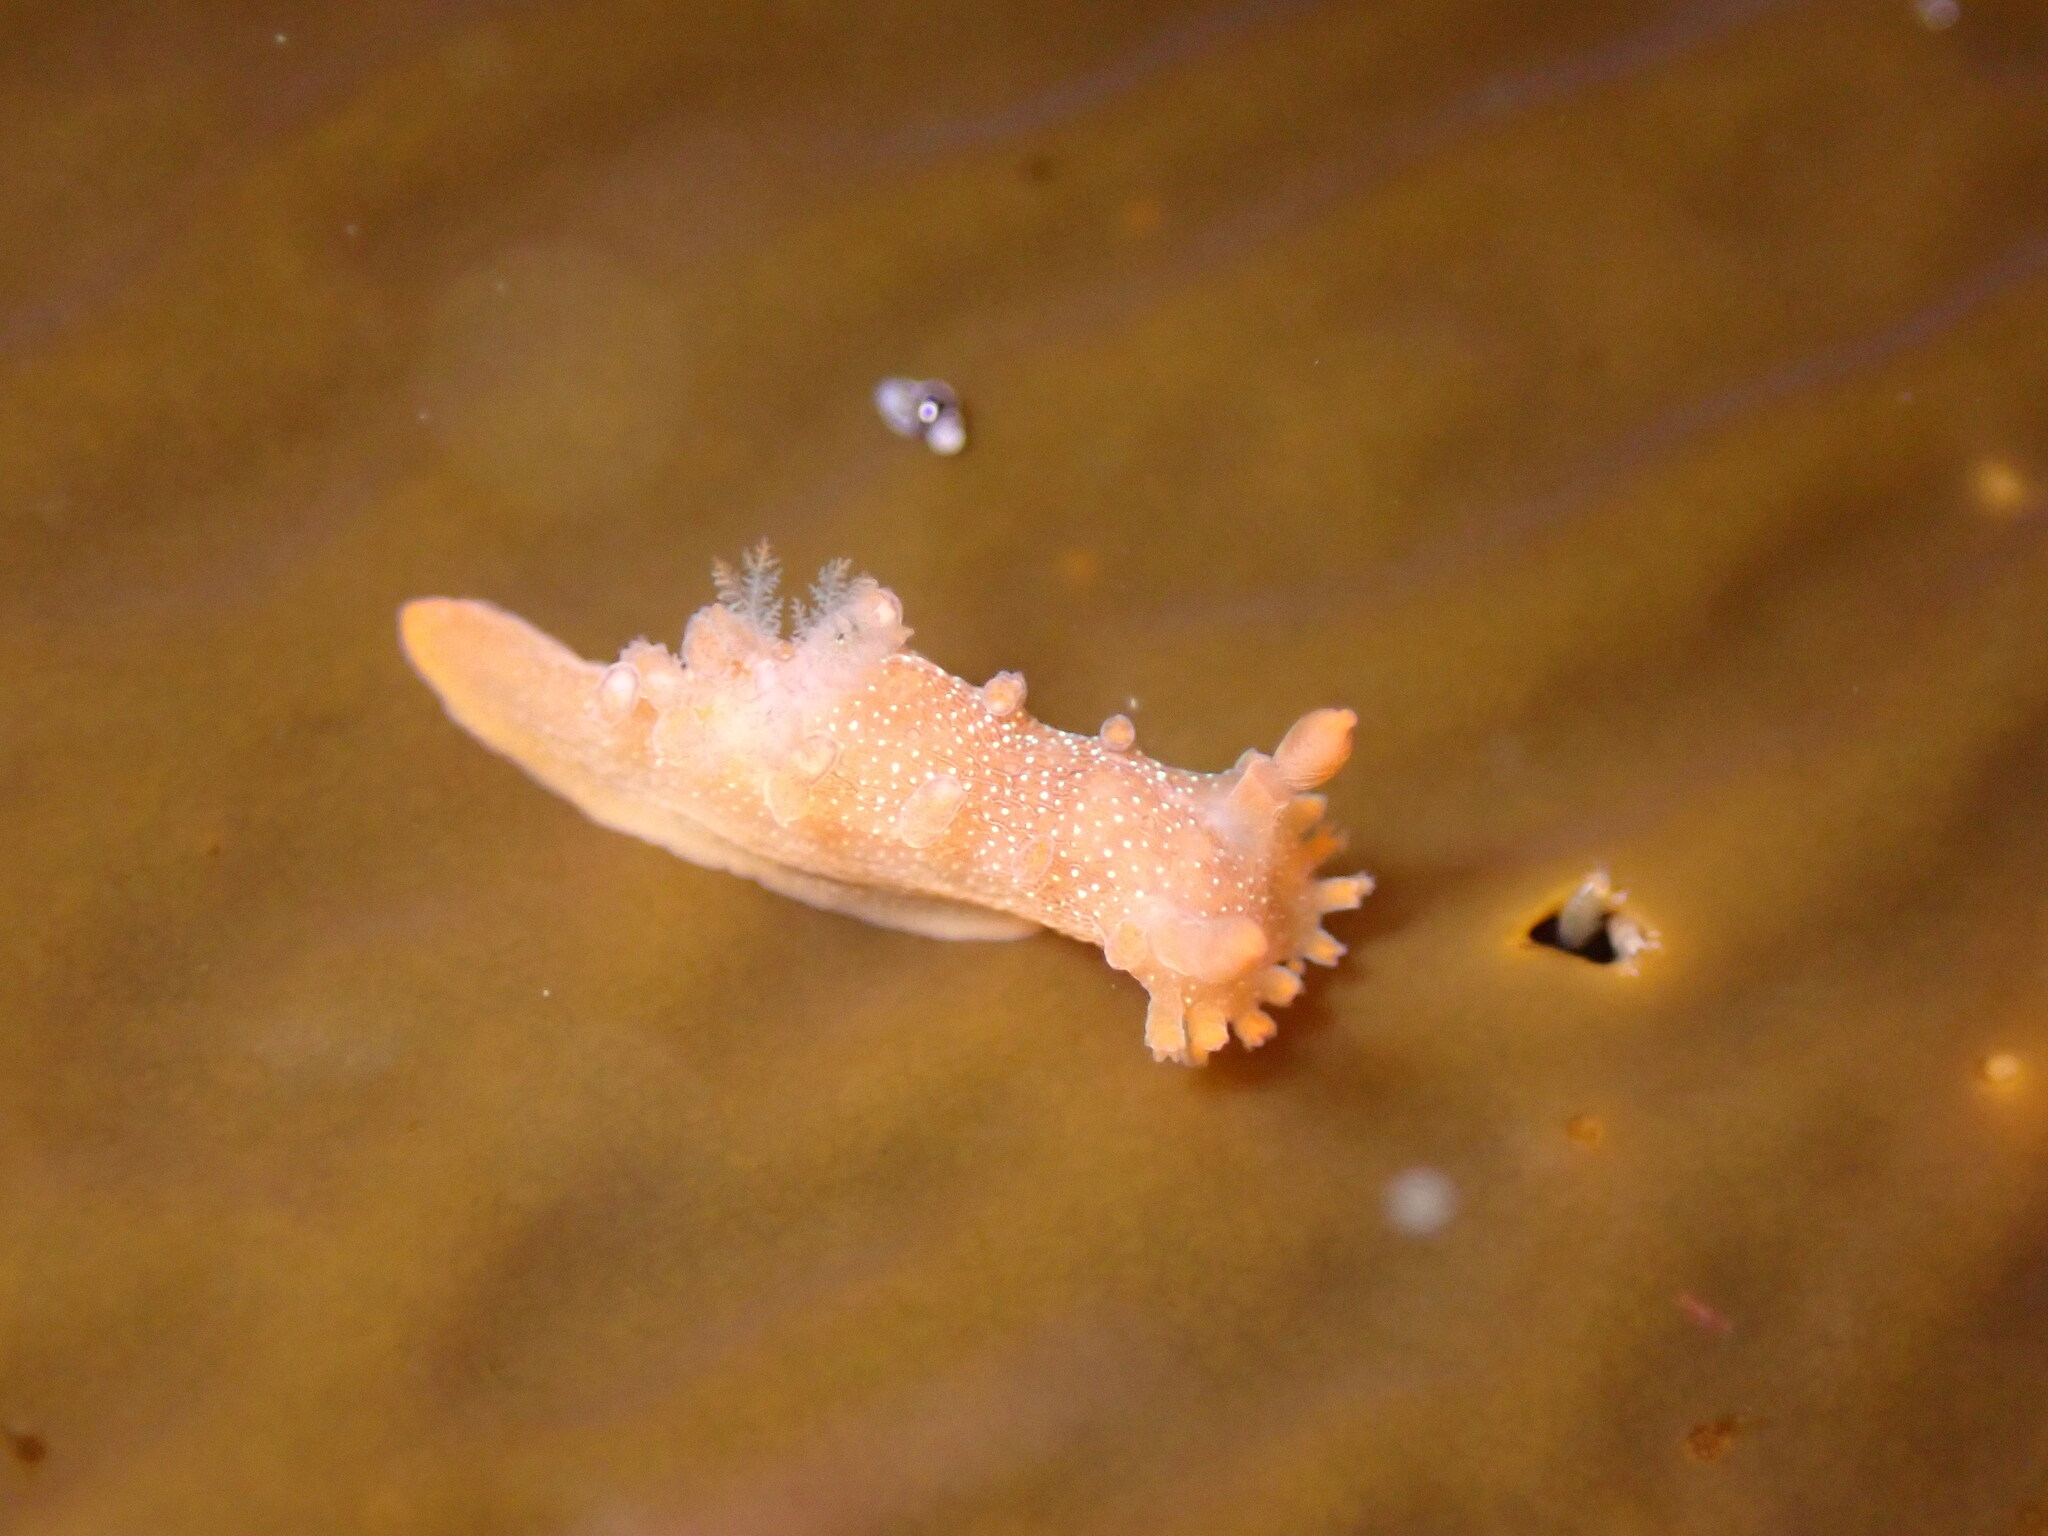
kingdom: Animalia
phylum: Mollusca
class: Gastropoda
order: Nudibranchia
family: Polyceridae
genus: Triopha
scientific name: Triopha maculata
